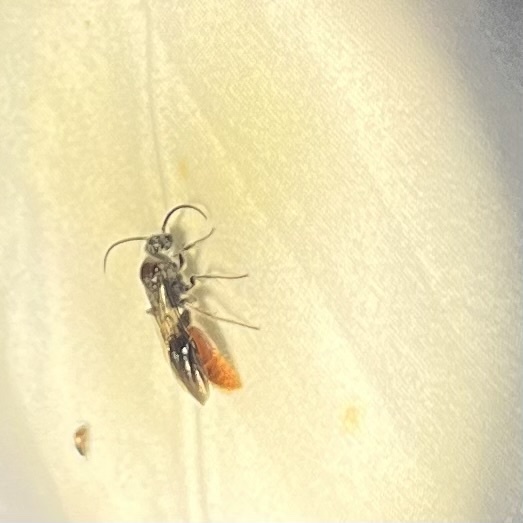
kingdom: Animalia
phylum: Arthropoda
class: Insecta
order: Hymenoptera
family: Mutillidae
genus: Sphaeropthalma
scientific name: Sphaeropthalma marpesia
